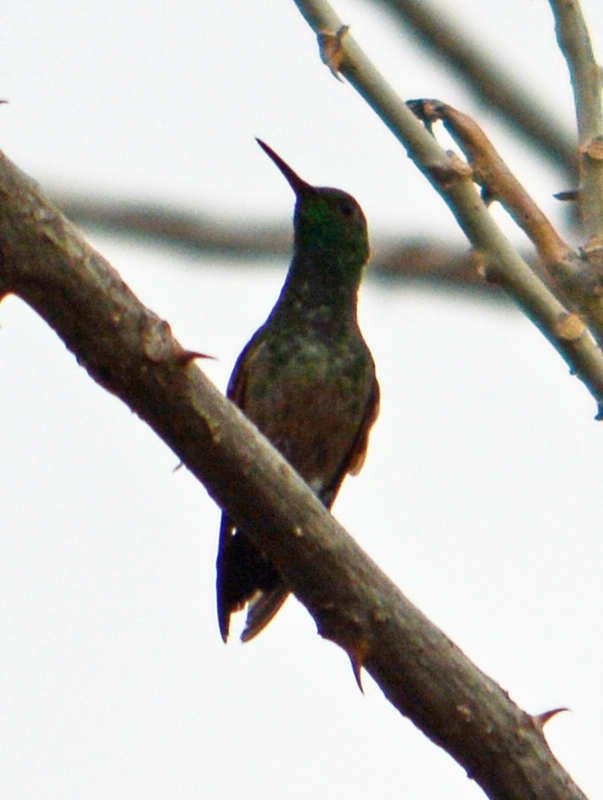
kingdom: Animalia
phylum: Chordata
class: Aves
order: Apodiformes
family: Trochilidae
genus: Saucerottia
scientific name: Saucerottia beryllina
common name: Berylline hummingbird
